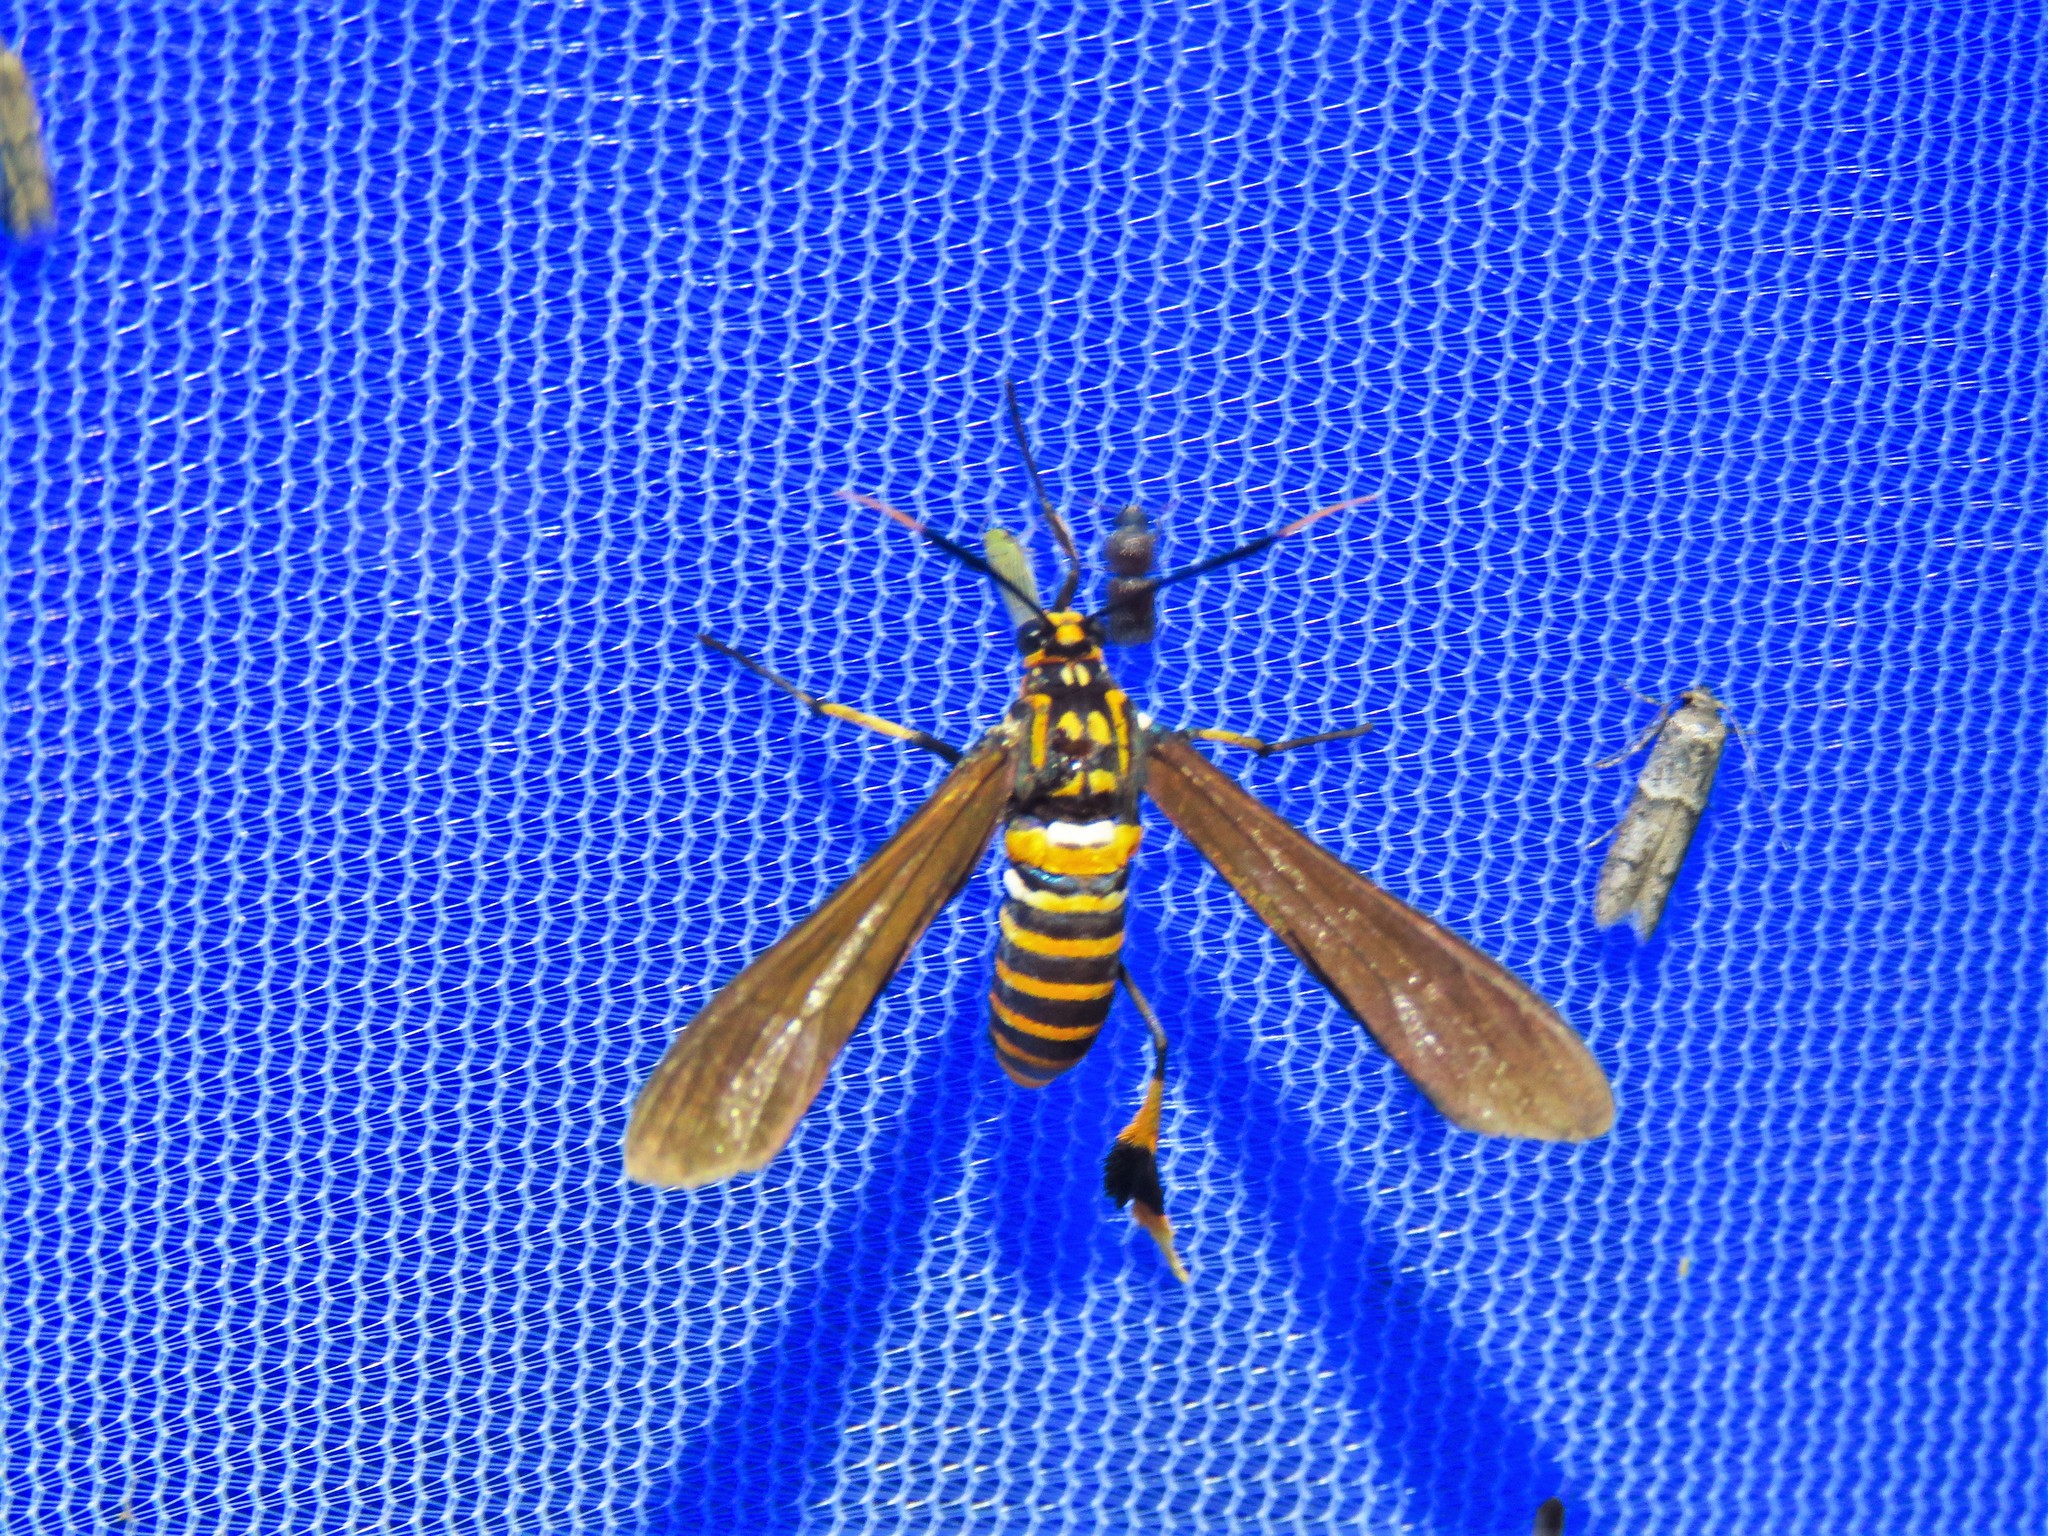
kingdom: Animalia
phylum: Arthropoda
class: Insecta
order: Lepidoptera
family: Erebidae
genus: Horama
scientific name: Horama panthalon
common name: Texas wasp moth
